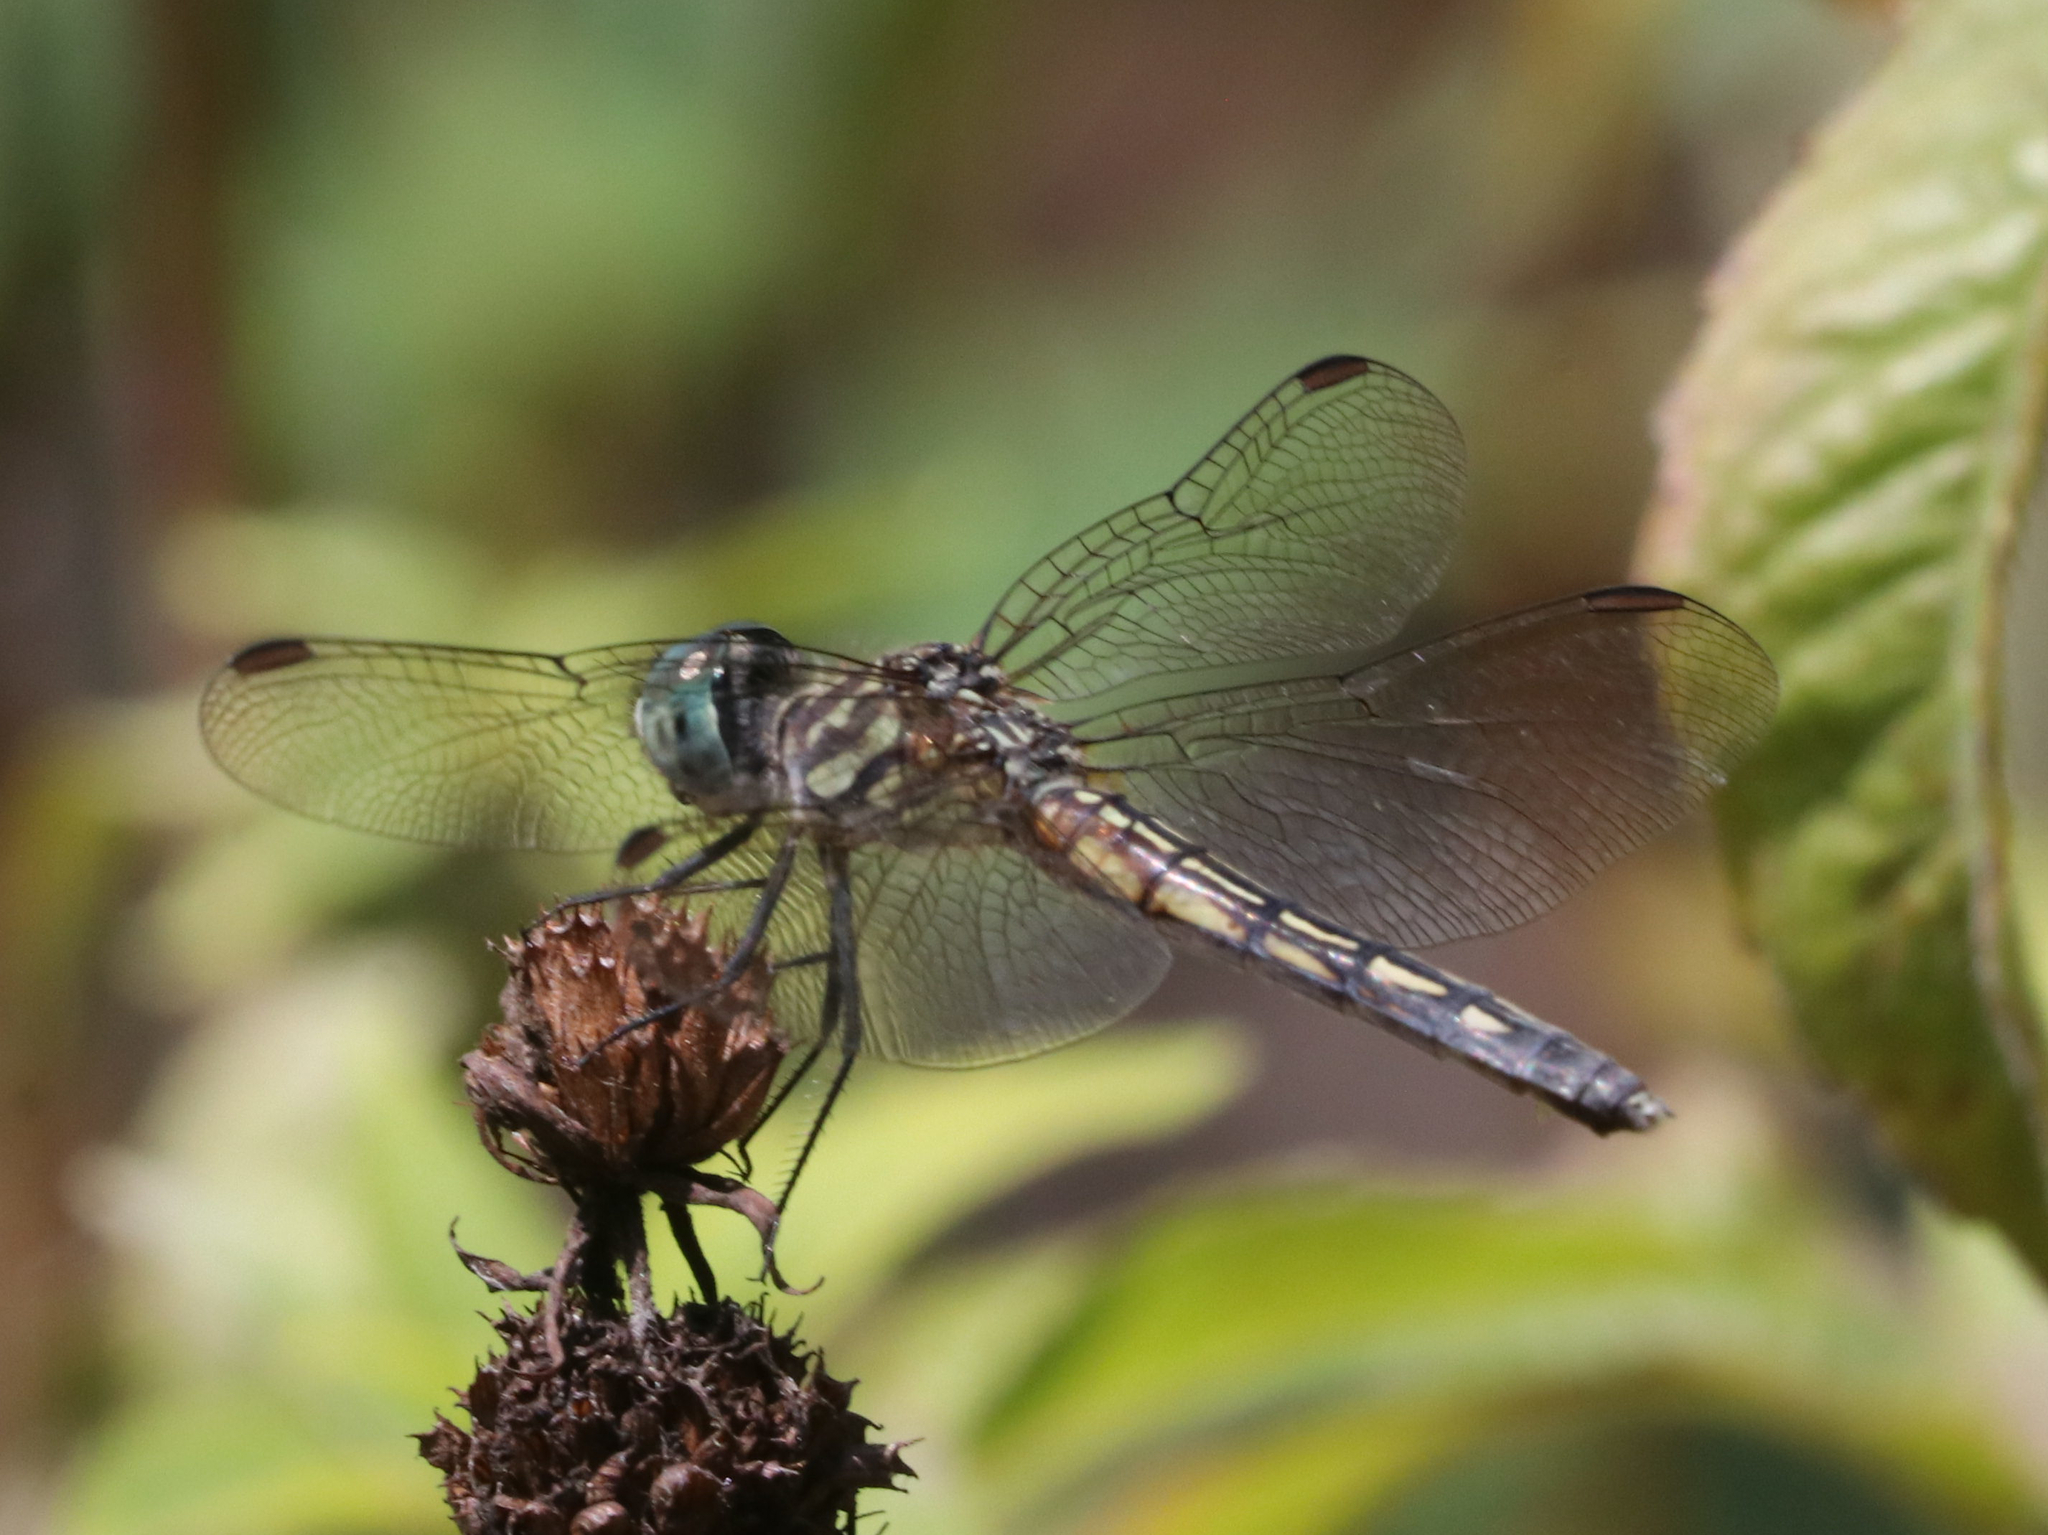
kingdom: Animalia
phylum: Arthropoda
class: Insecta
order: Odonata
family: Libellulidae
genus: Pachydiplax
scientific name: Pachydiplax longipennis
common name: Blue dasher
